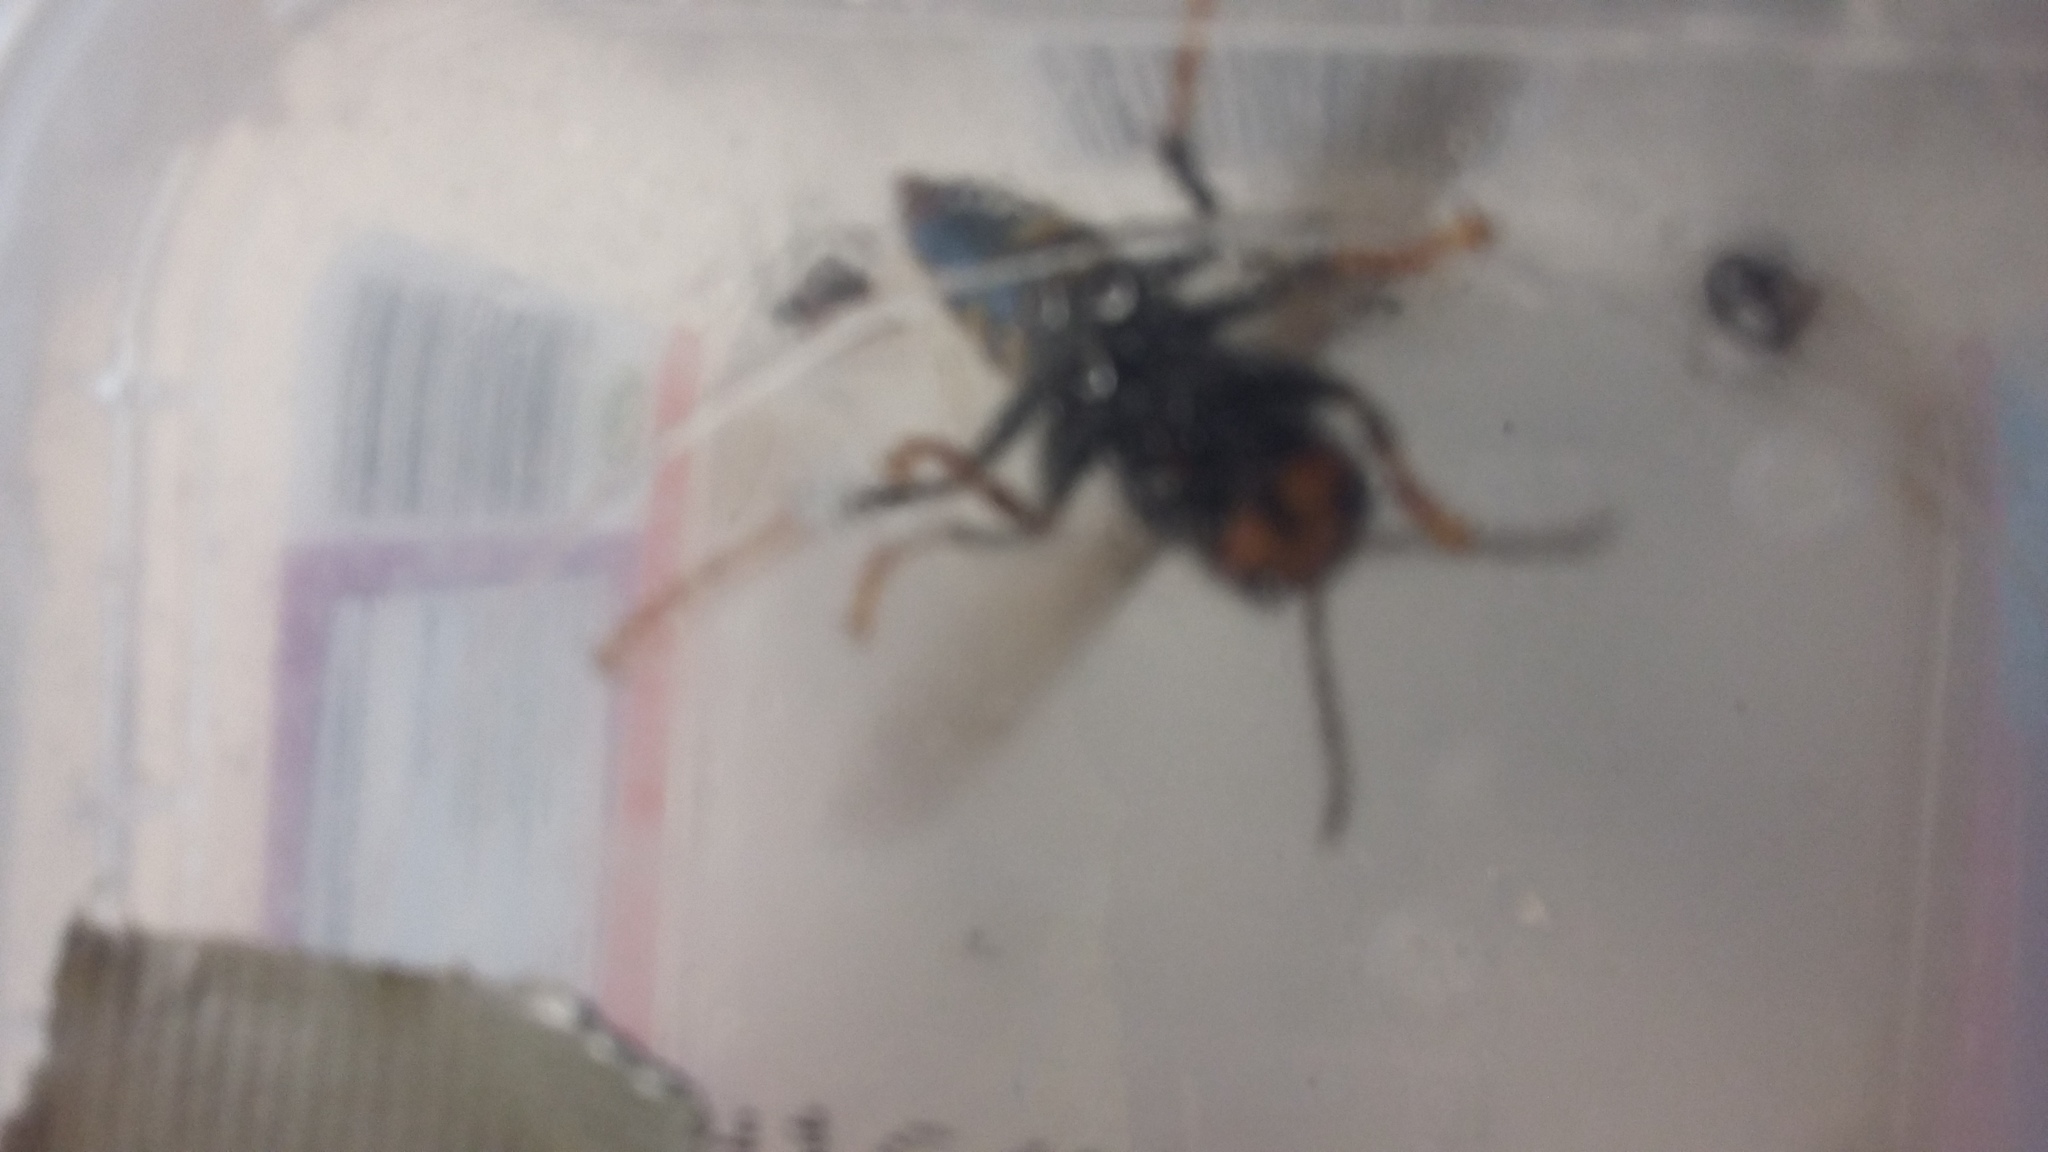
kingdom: Animalia
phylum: Arthropoda
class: Insecta
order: Hymenoptera
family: Vespidae
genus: Vespa
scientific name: Vespa velutina
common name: Asian hornet
